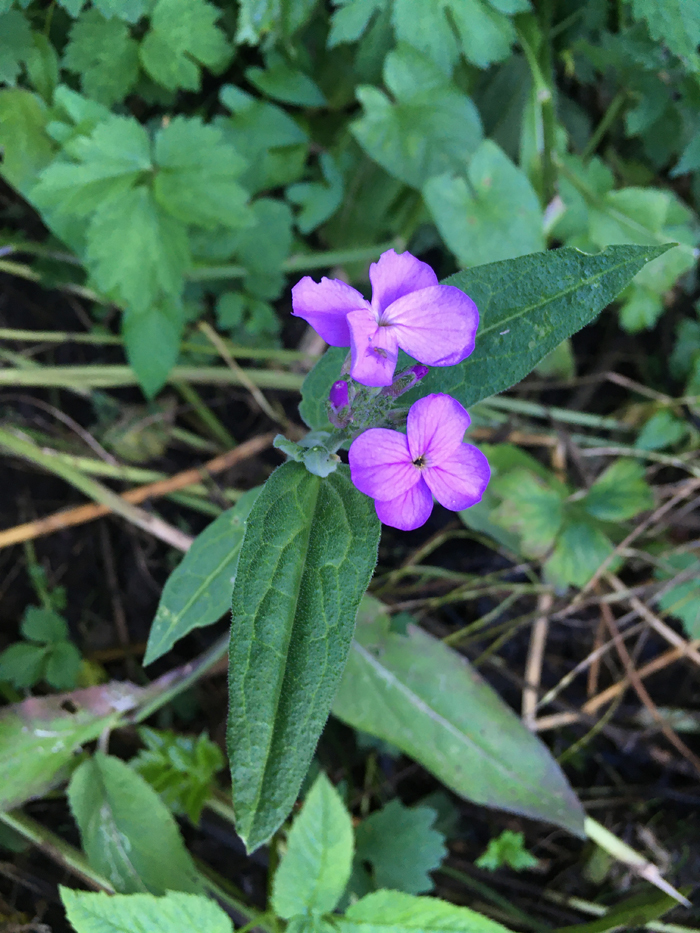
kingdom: Plantae
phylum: Tracheophyta
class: Magnoliopsida
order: Brassicales
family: Brassicaceae
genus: Hesperis
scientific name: Hesperis
